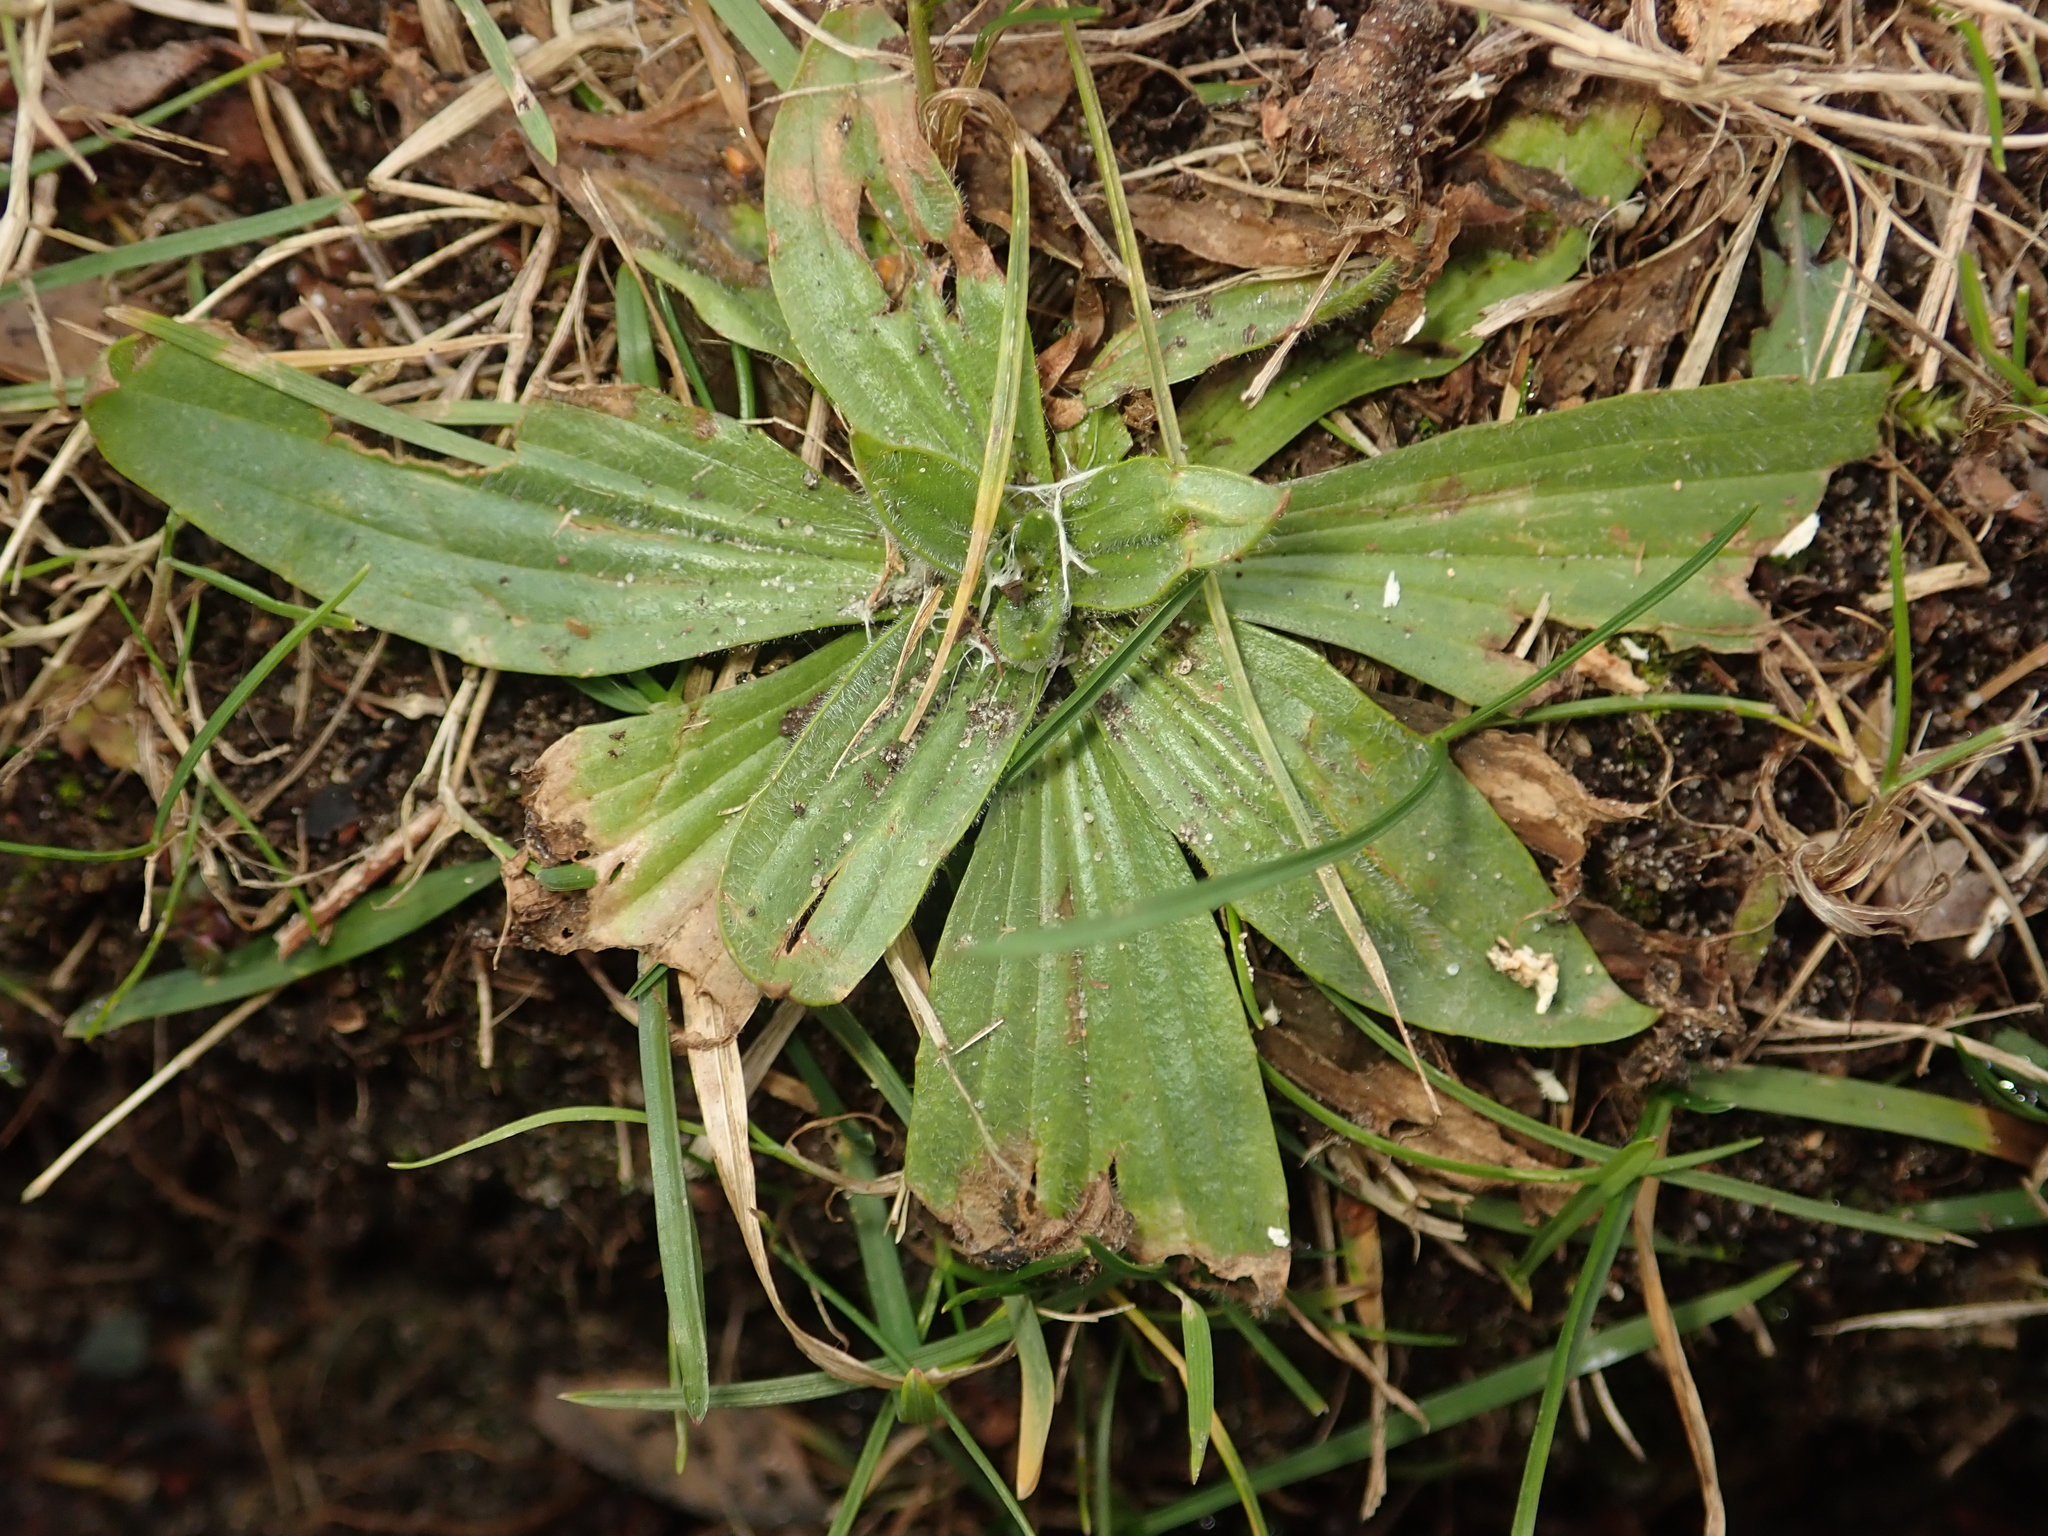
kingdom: Plantae
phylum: Tracheophyta
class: Magnoliopsida
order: Lamiales
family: Plantaginaceae
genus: Plantago
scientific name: Plantago lanceolata
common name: Ribwort plantain
